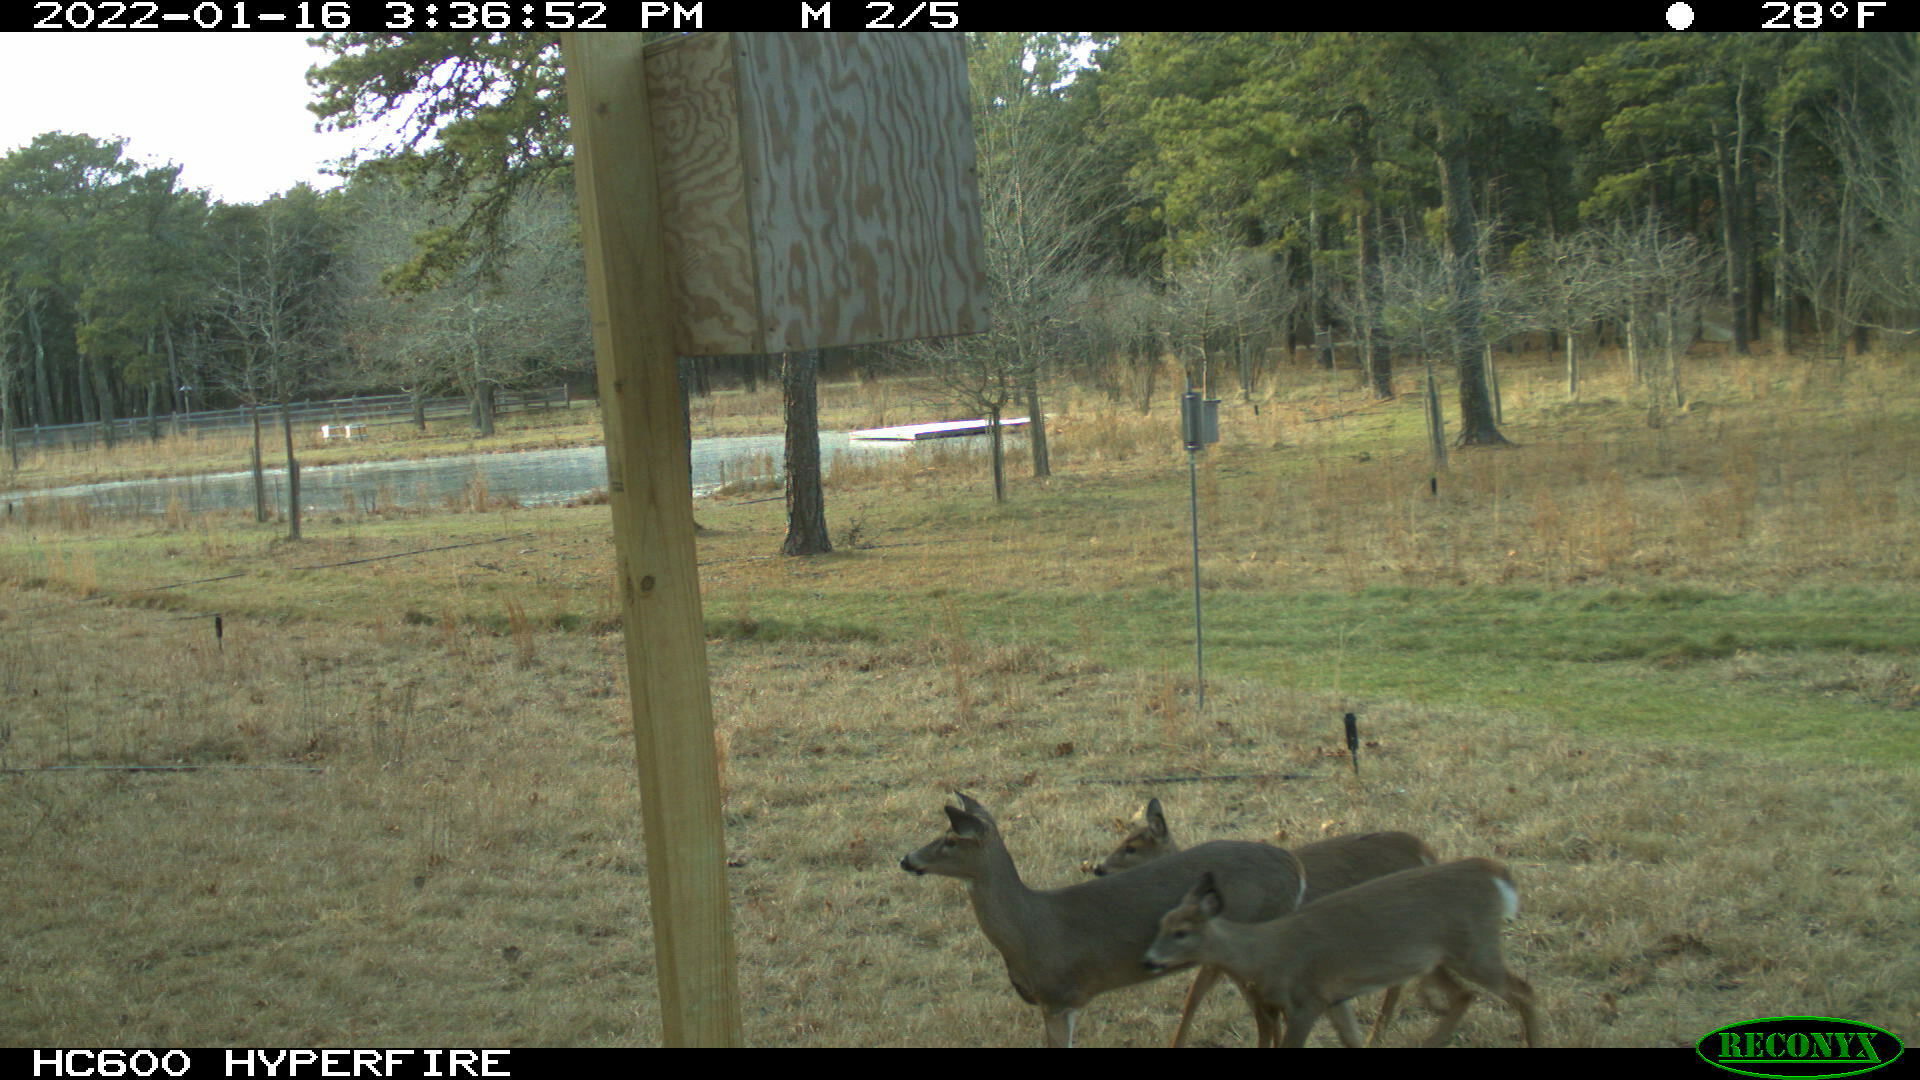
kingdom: Animalia
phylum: Chordata
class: Mammalia
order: Artiodactyla
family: Cervidae
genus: Odocoileus
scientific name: Odocoileus virginianus
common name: White-tailed deer
